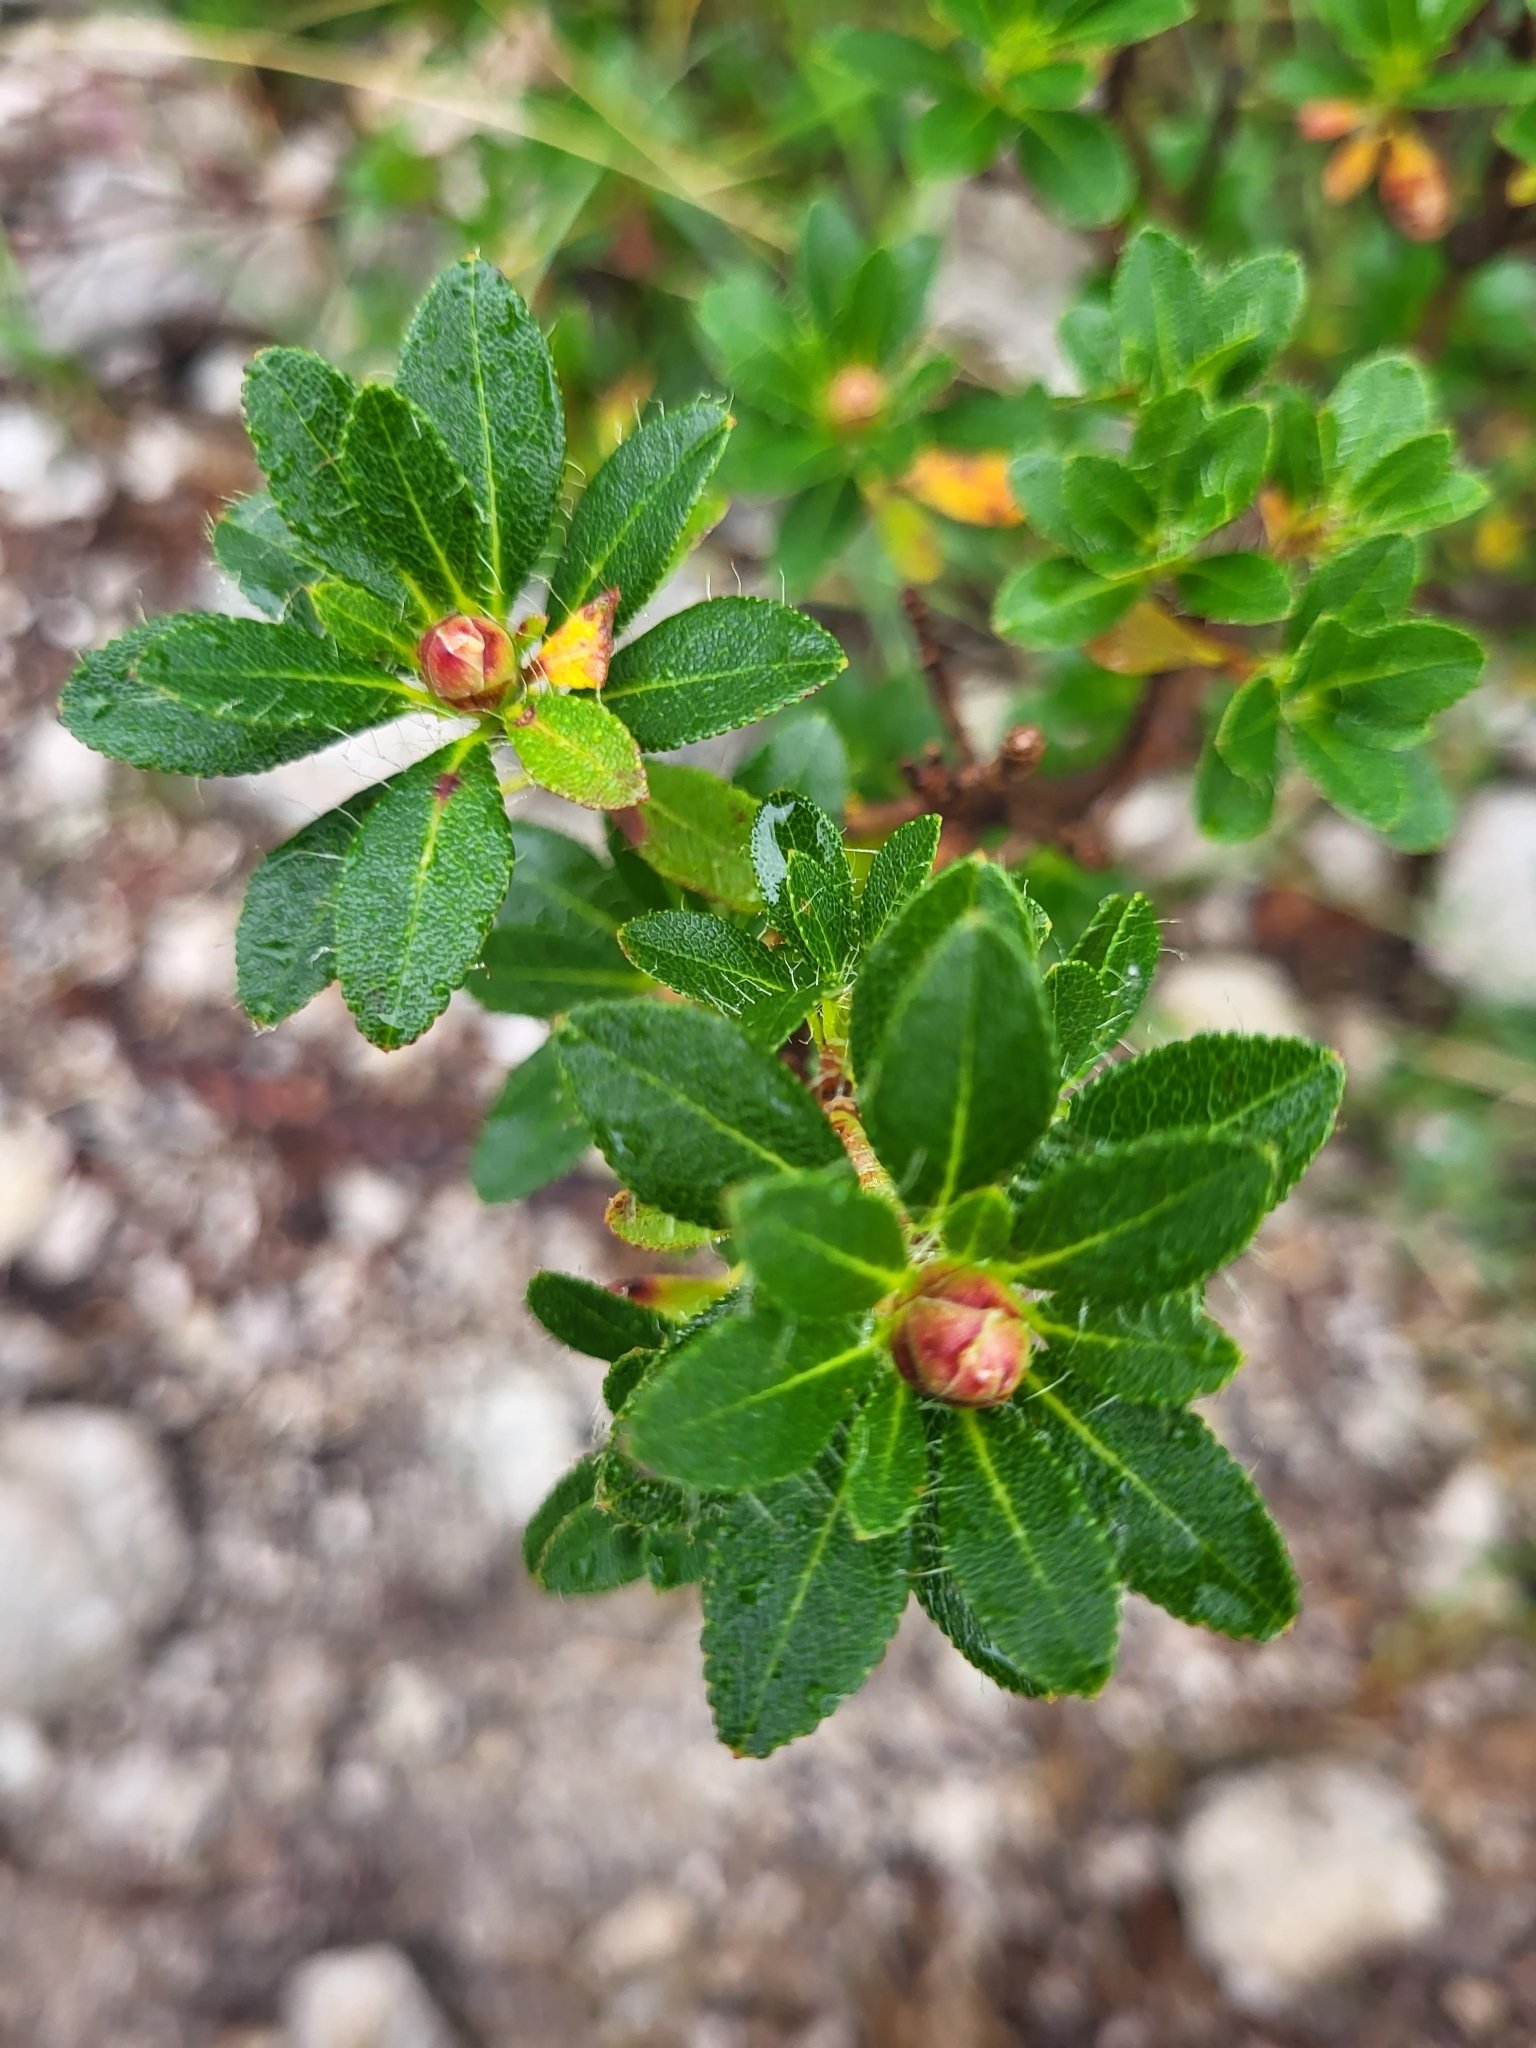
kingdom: Plantae
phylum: Tracheophyta
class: Magnoliopsida
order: Ericales
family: Ericaceae
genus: Rhododendron
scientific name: Rhododendron hirsutum
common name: Hairy alpenrose
